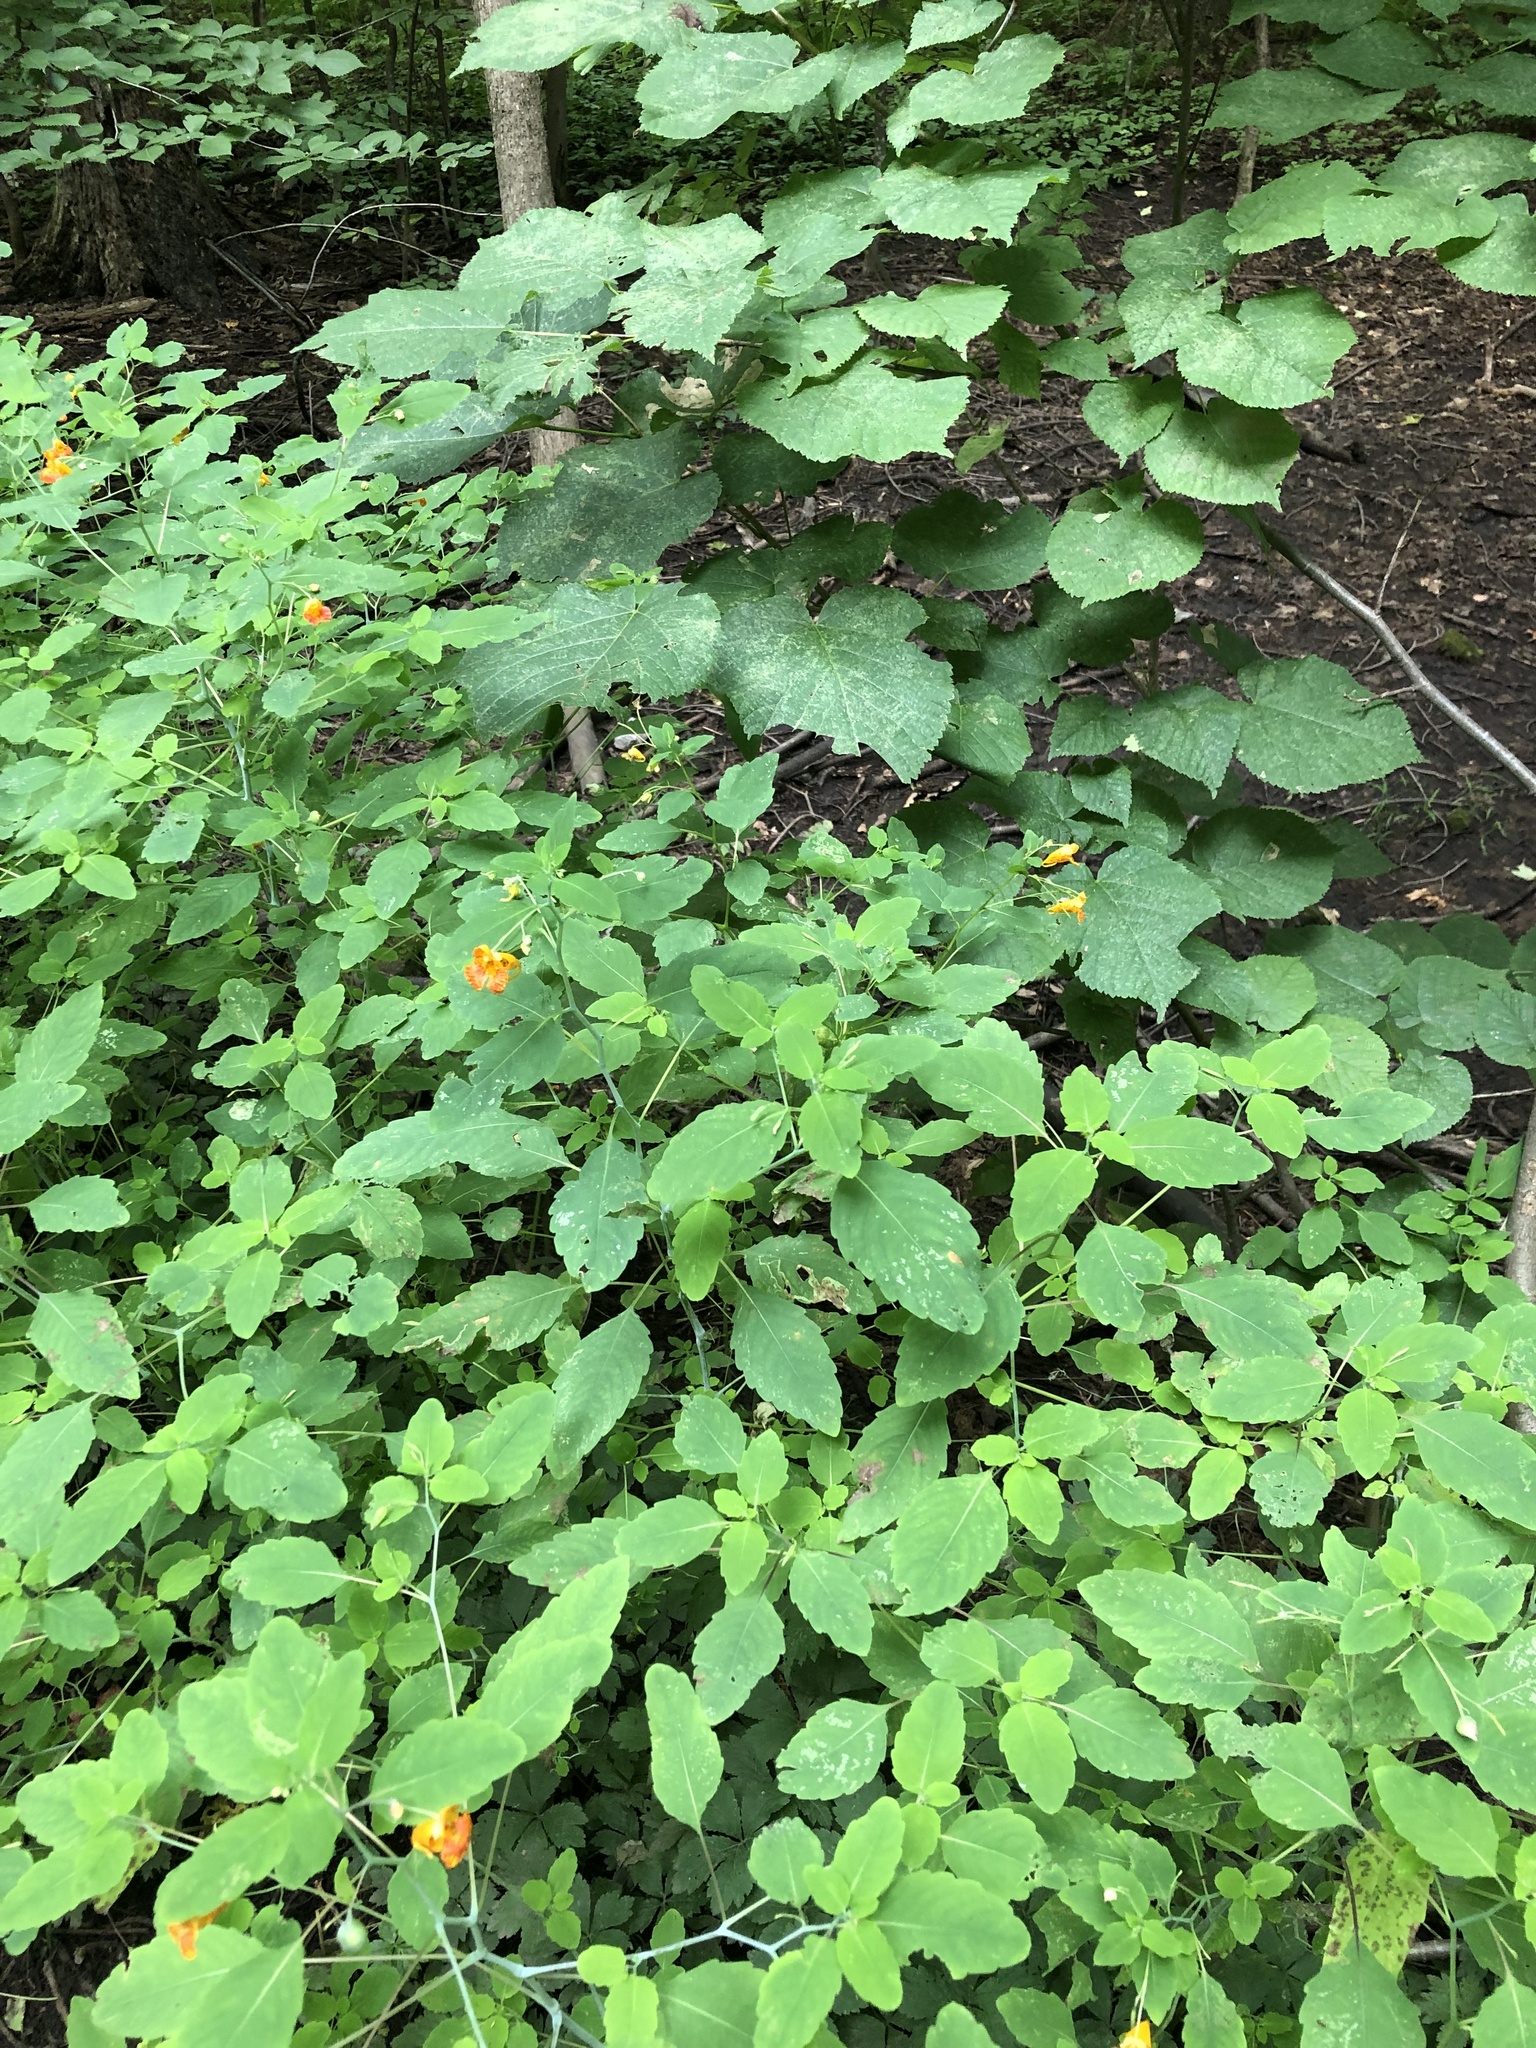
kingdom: Plantae
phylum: Tracheophyta
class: Magnoliopsida
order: Ericales
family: Balsaminaceae
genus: Impatiens
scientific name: Impatiens capensis
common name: Orange balsam
